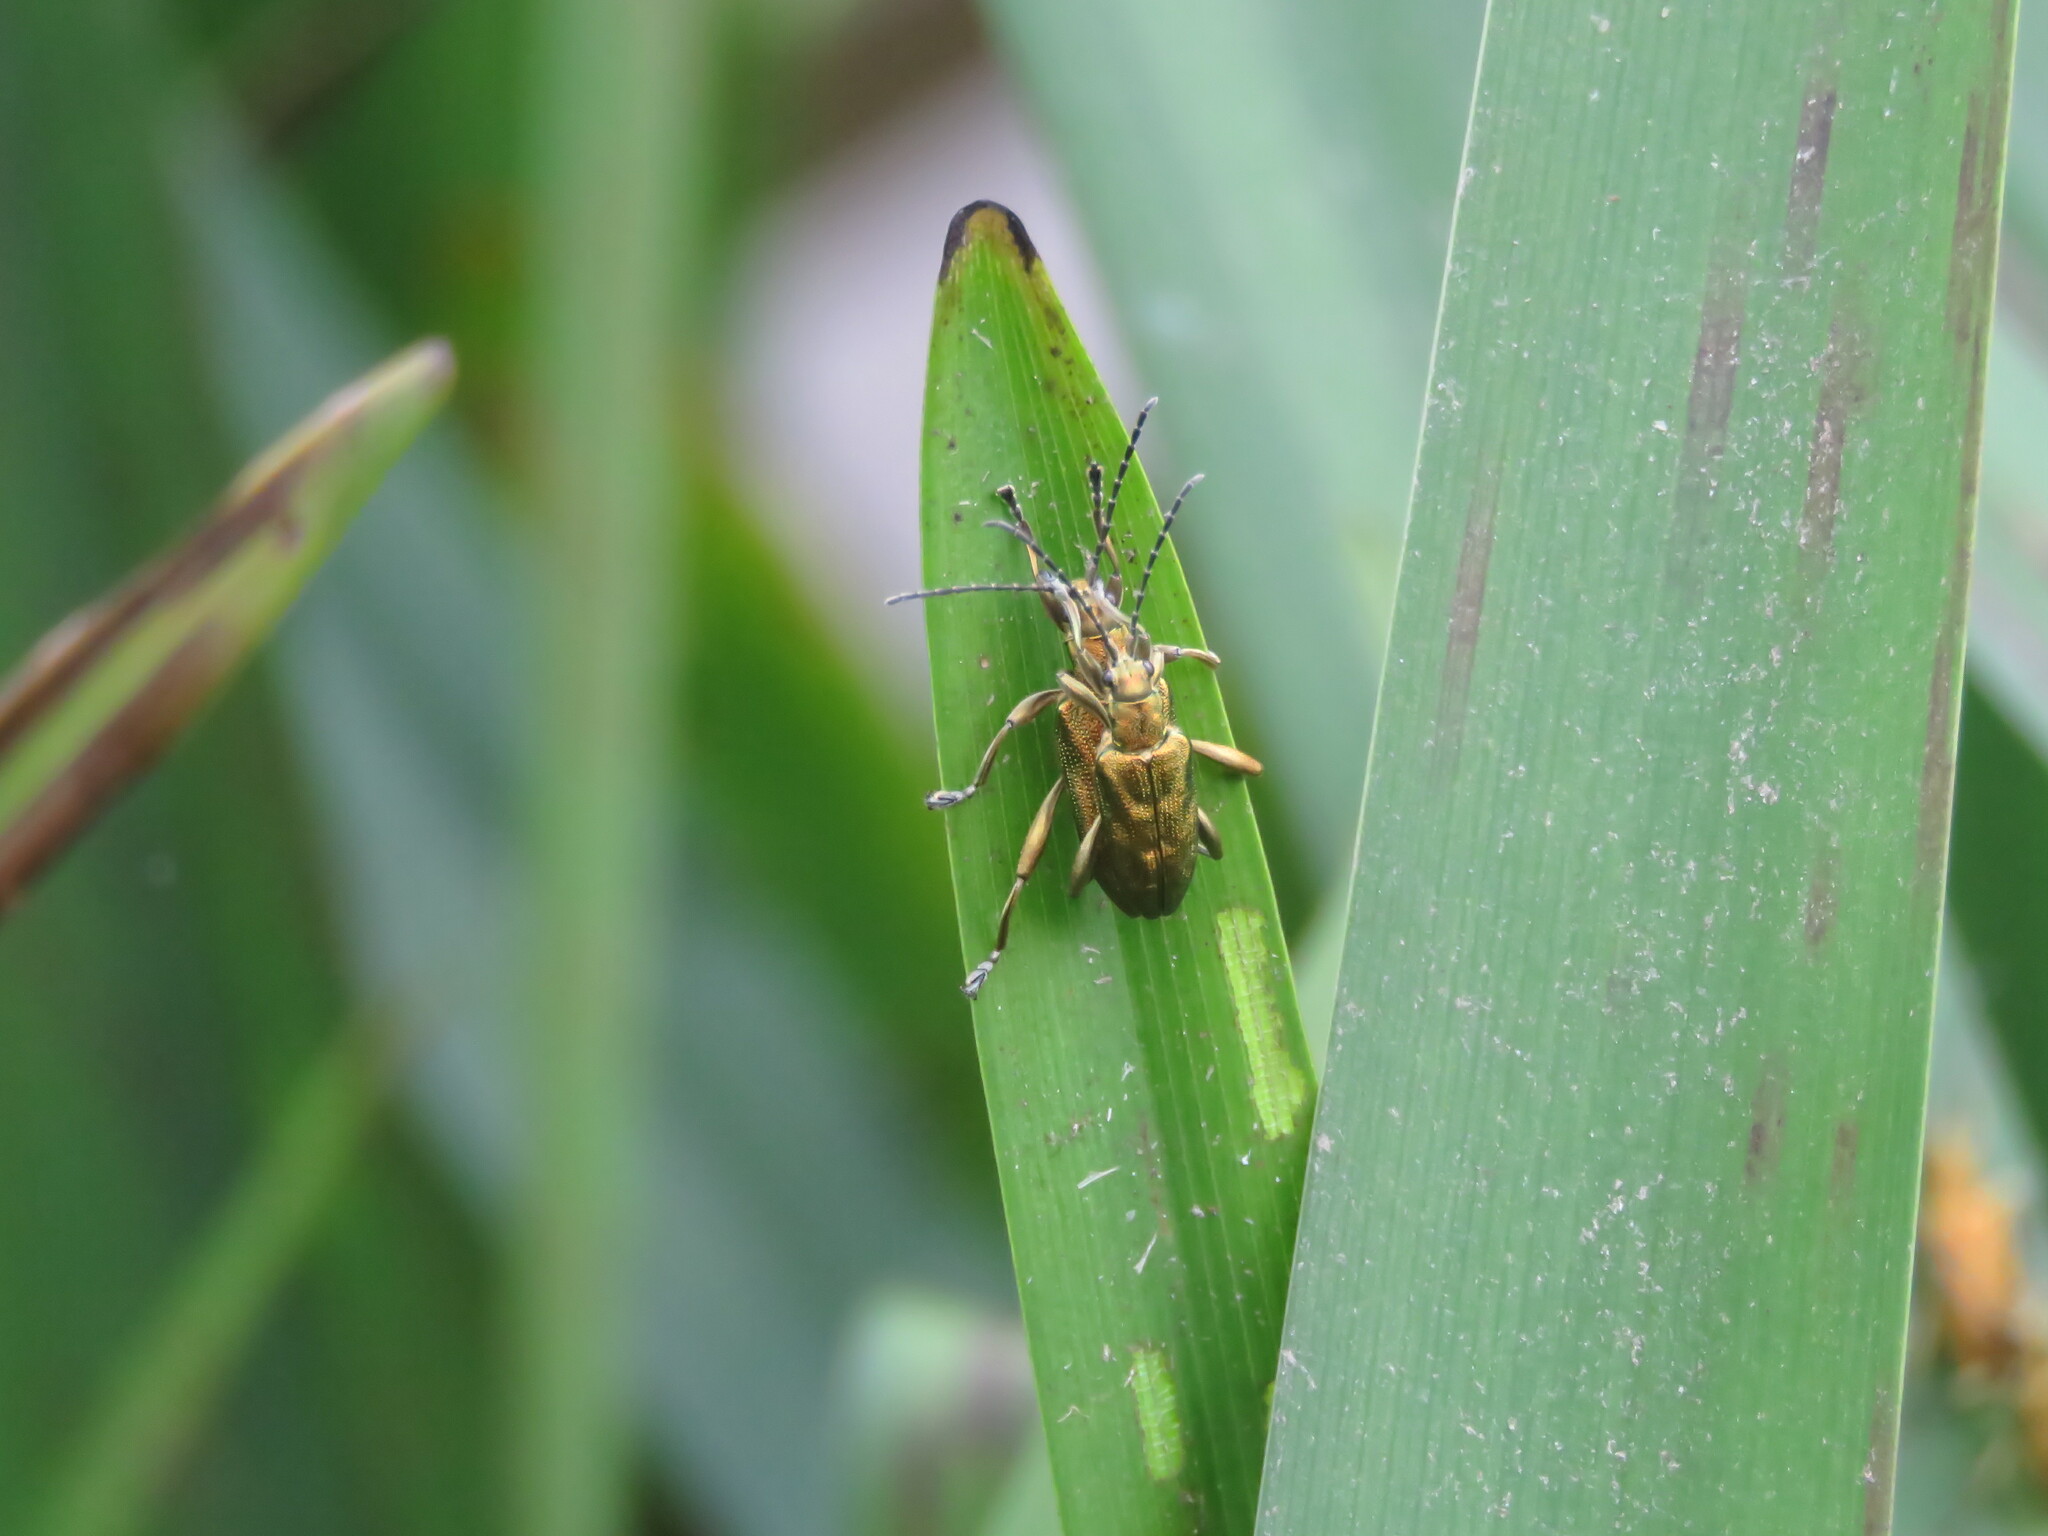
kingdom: Animalia
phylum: Arthropoda
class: Insecta
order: Coleoptera
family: Chrysomelidae
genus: Donacia
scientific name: Donacia bicolora
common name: Reed beetle
